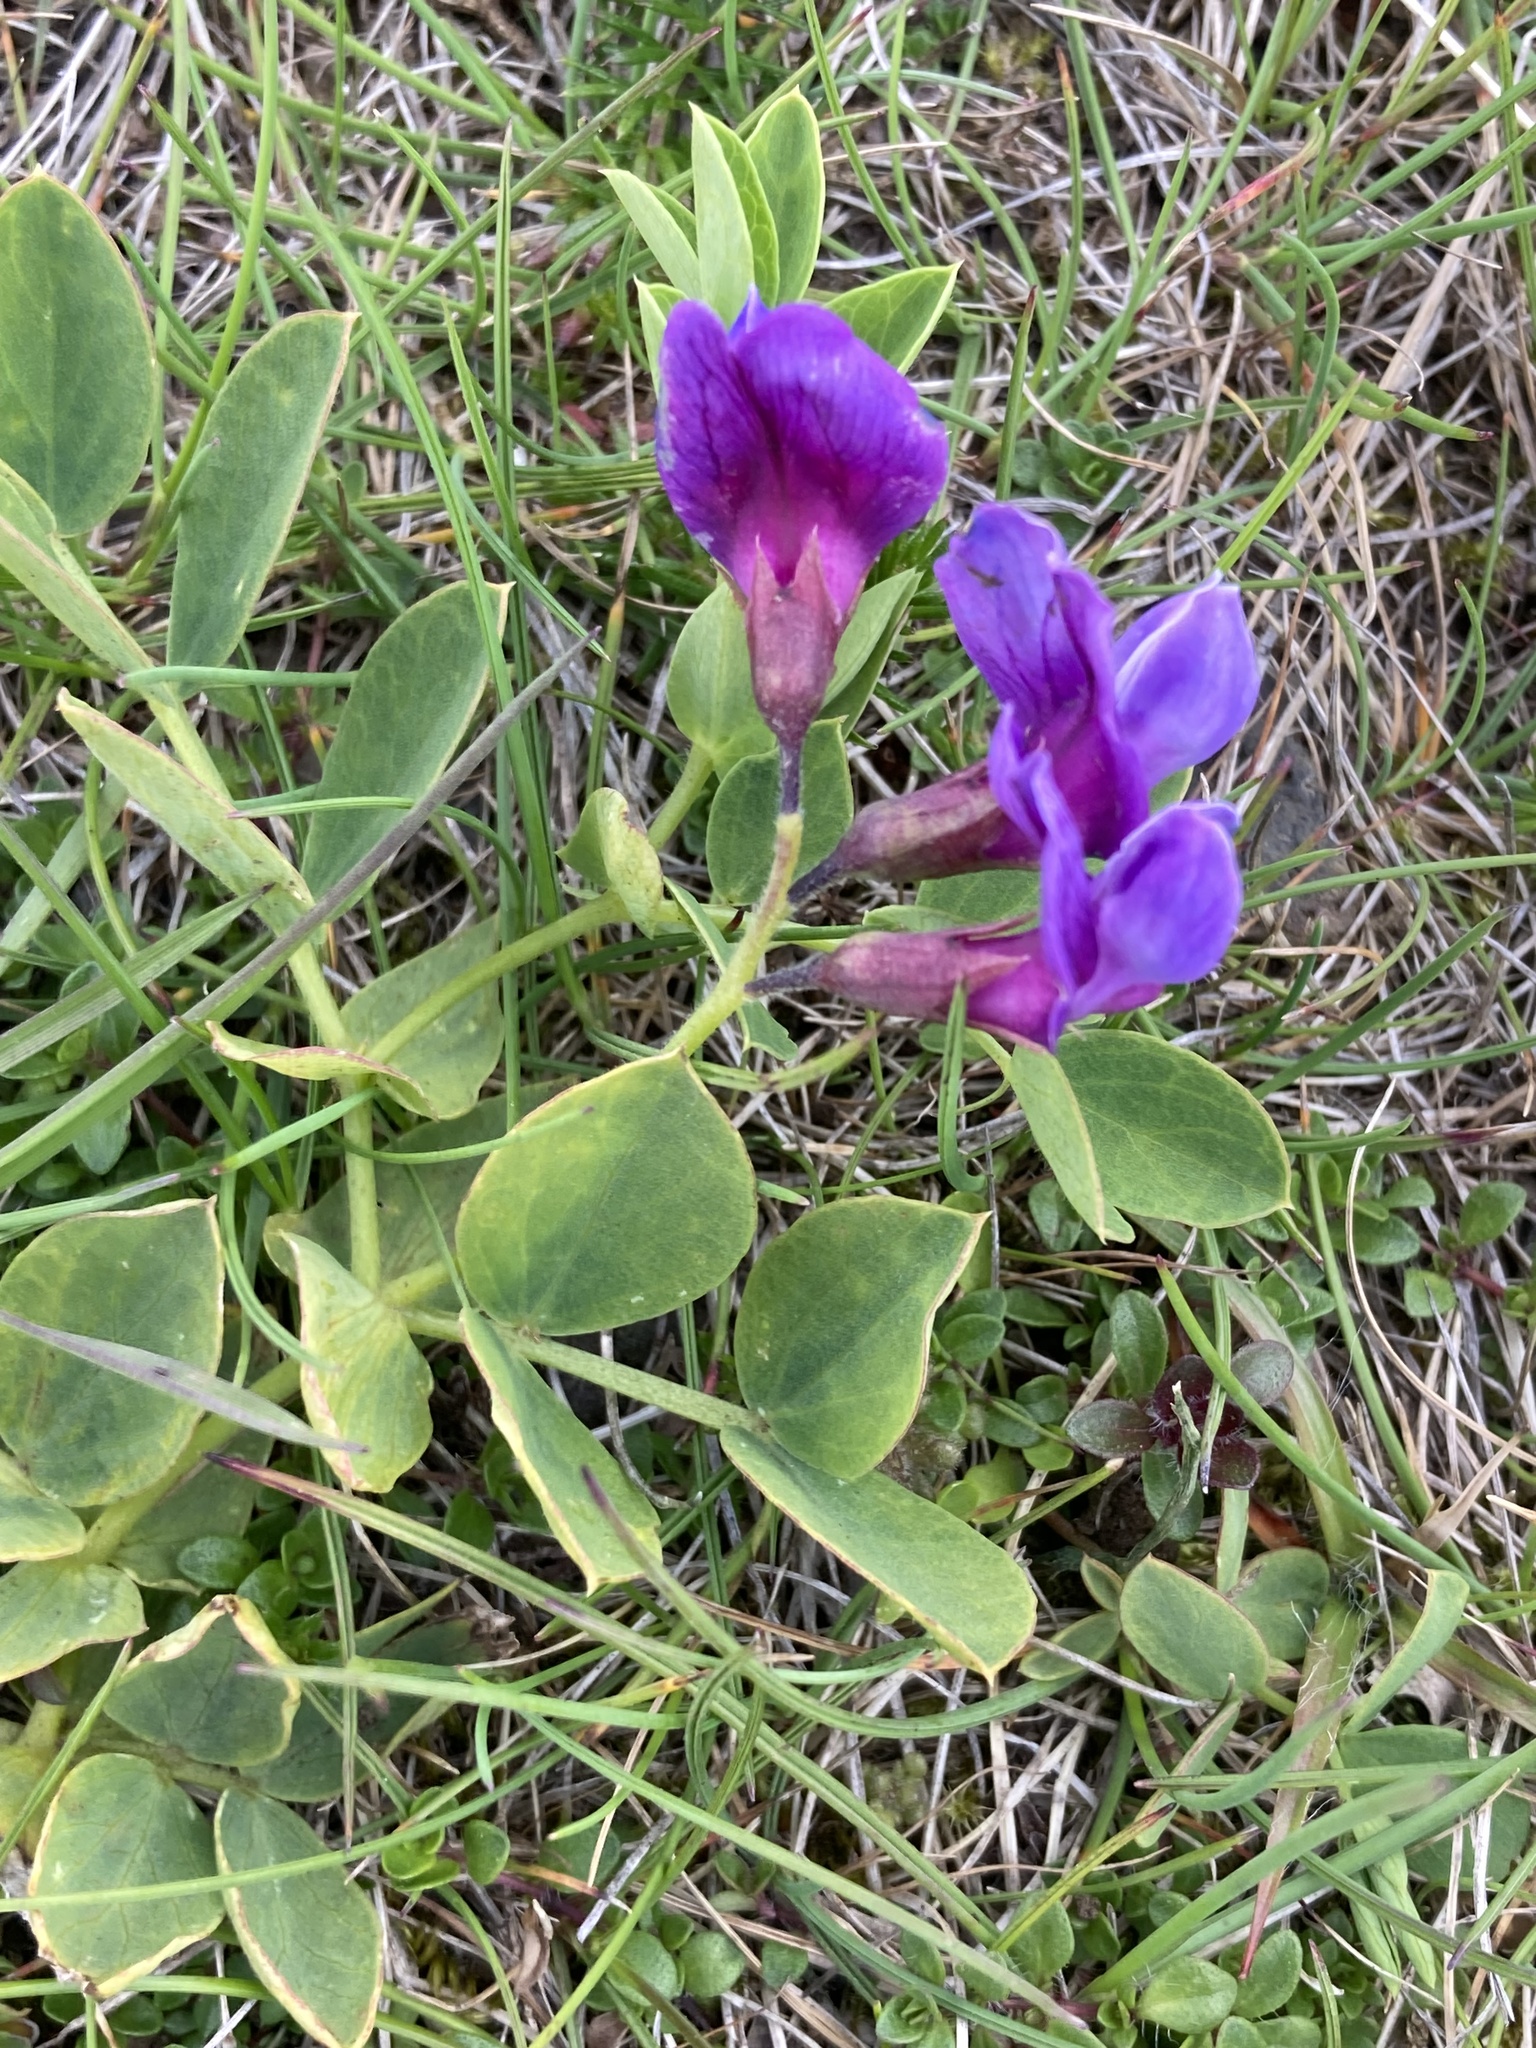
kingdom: Plantae
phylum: Tracheophyta
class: Magnoliopsida
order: Fabales
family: Fabaceae
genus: Lathyrus
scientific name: Lathyrus japonicus
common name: Sea pea
